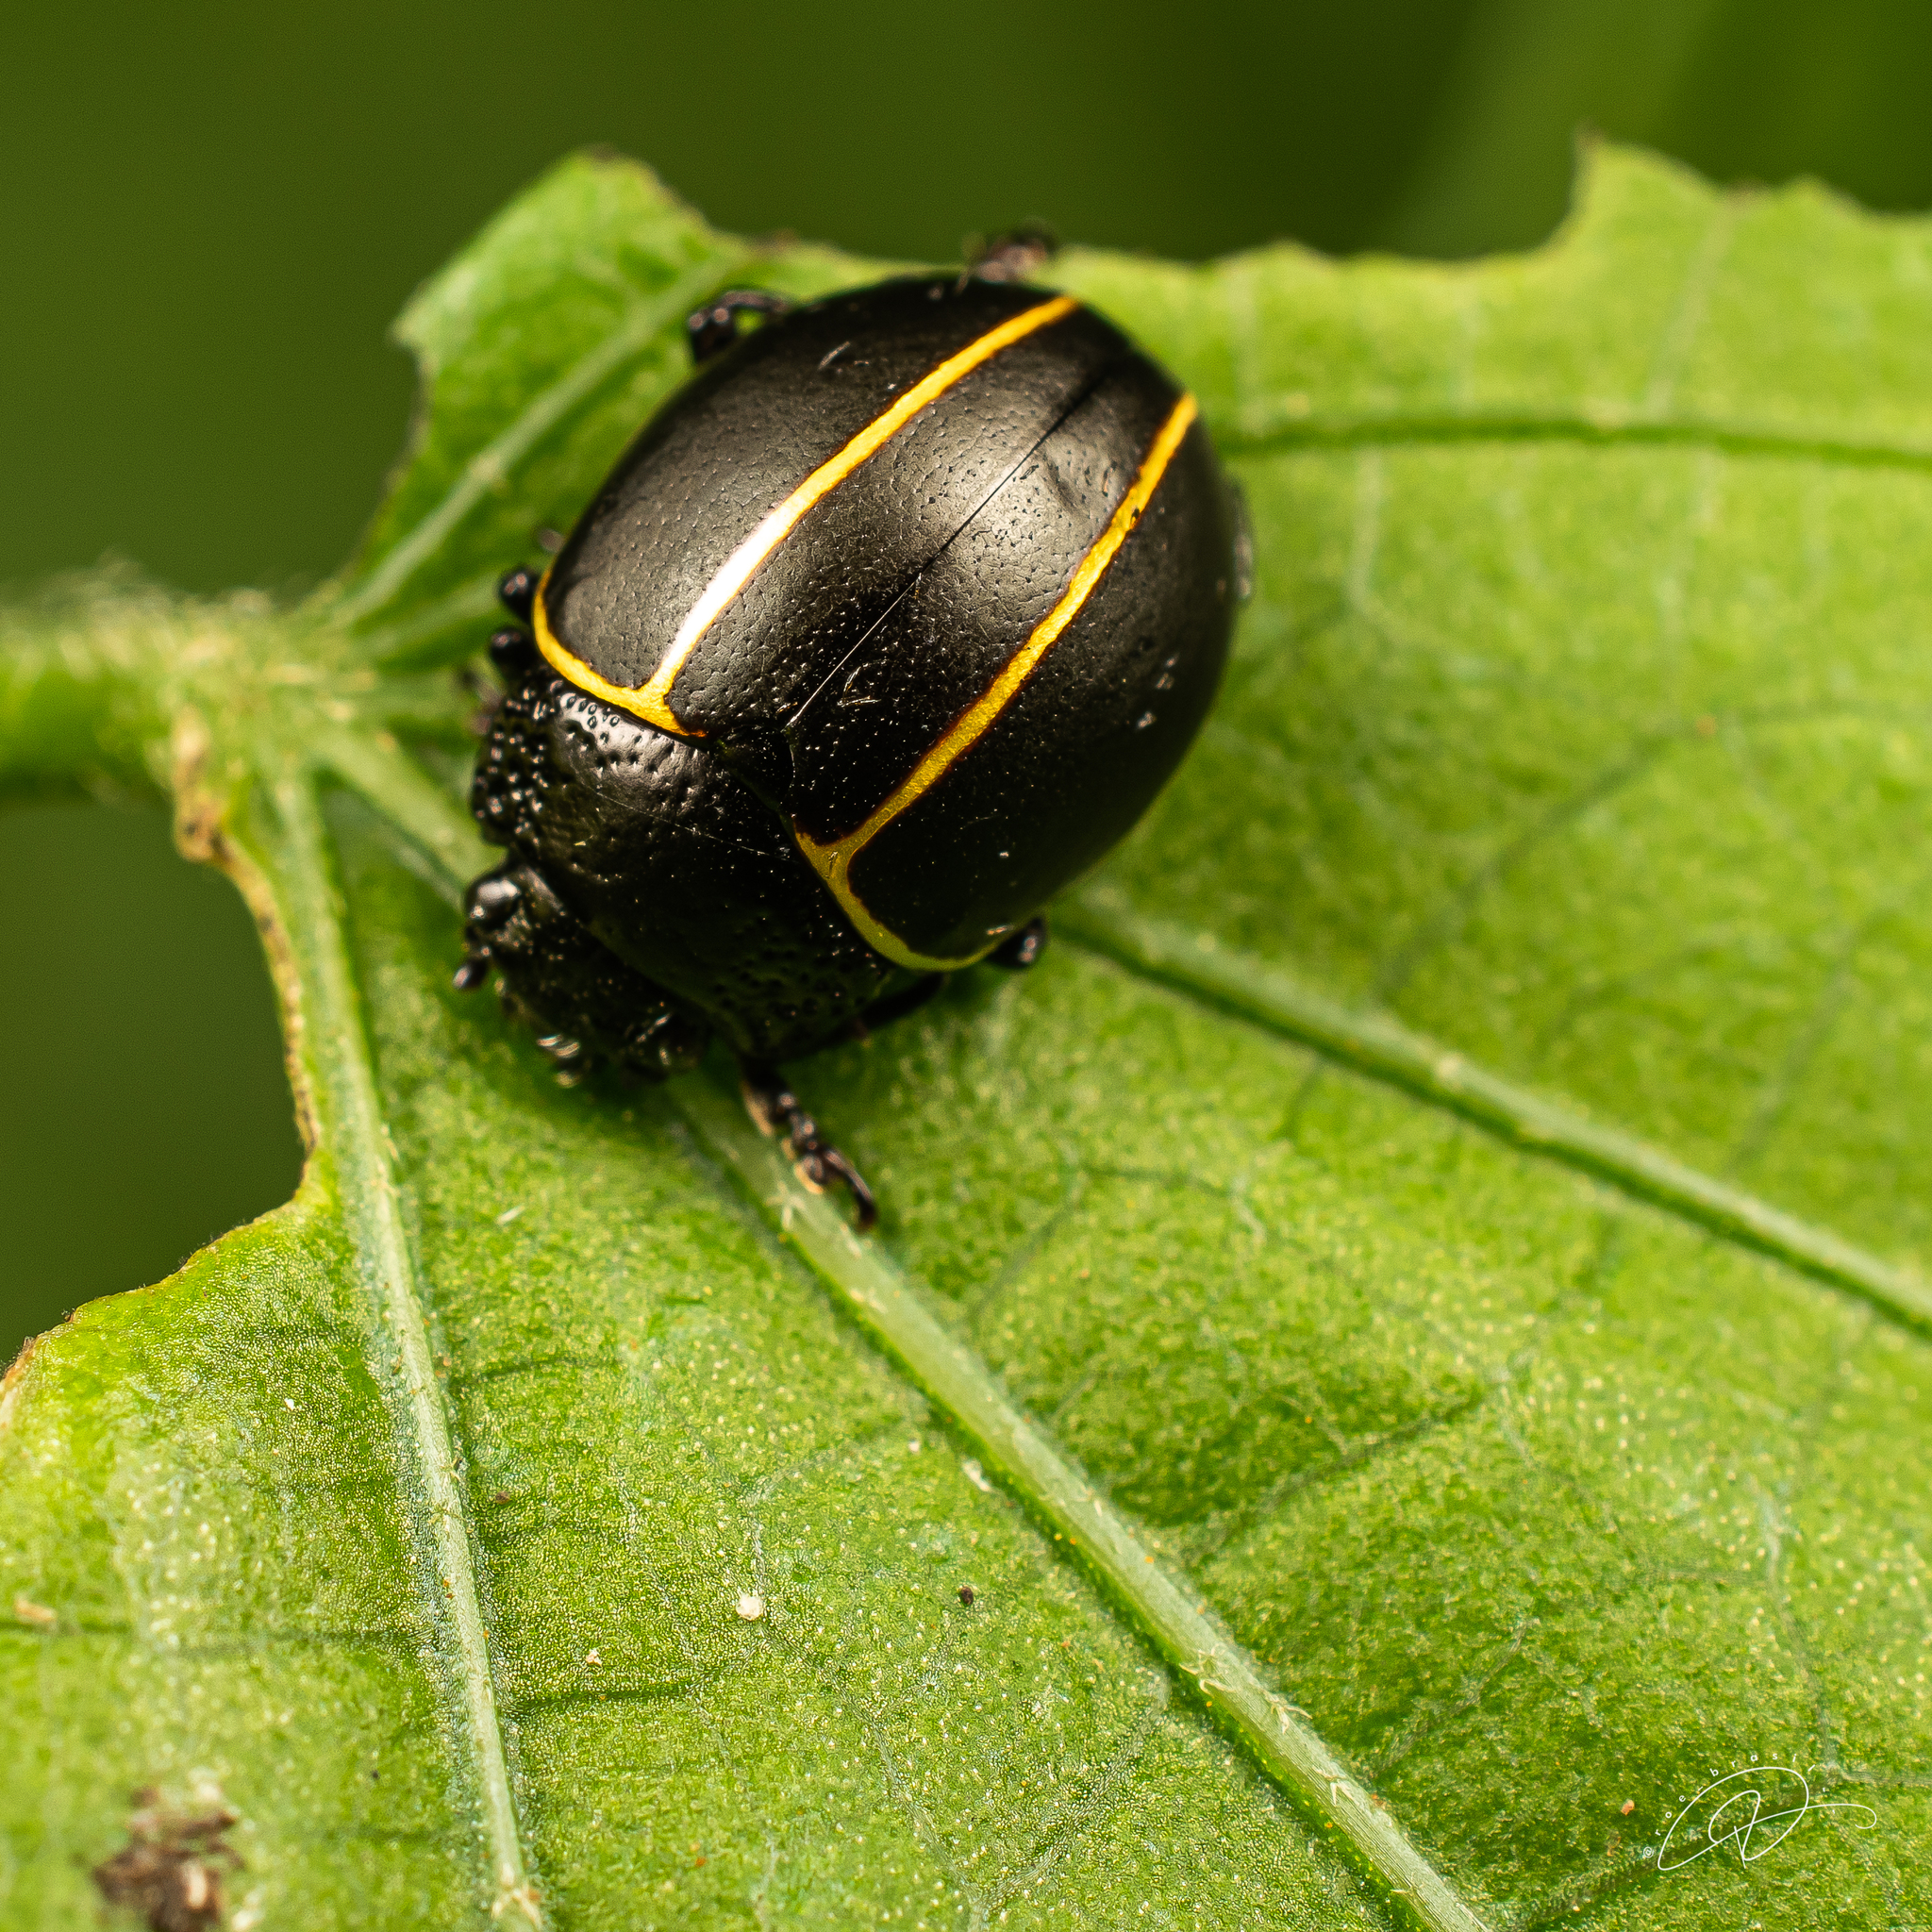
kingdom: Animalia
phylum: Arthropoda
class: Insecta
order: Coleoptera
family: Chrysomelidae
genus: Cosmogramma
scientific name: Cosmogramma
